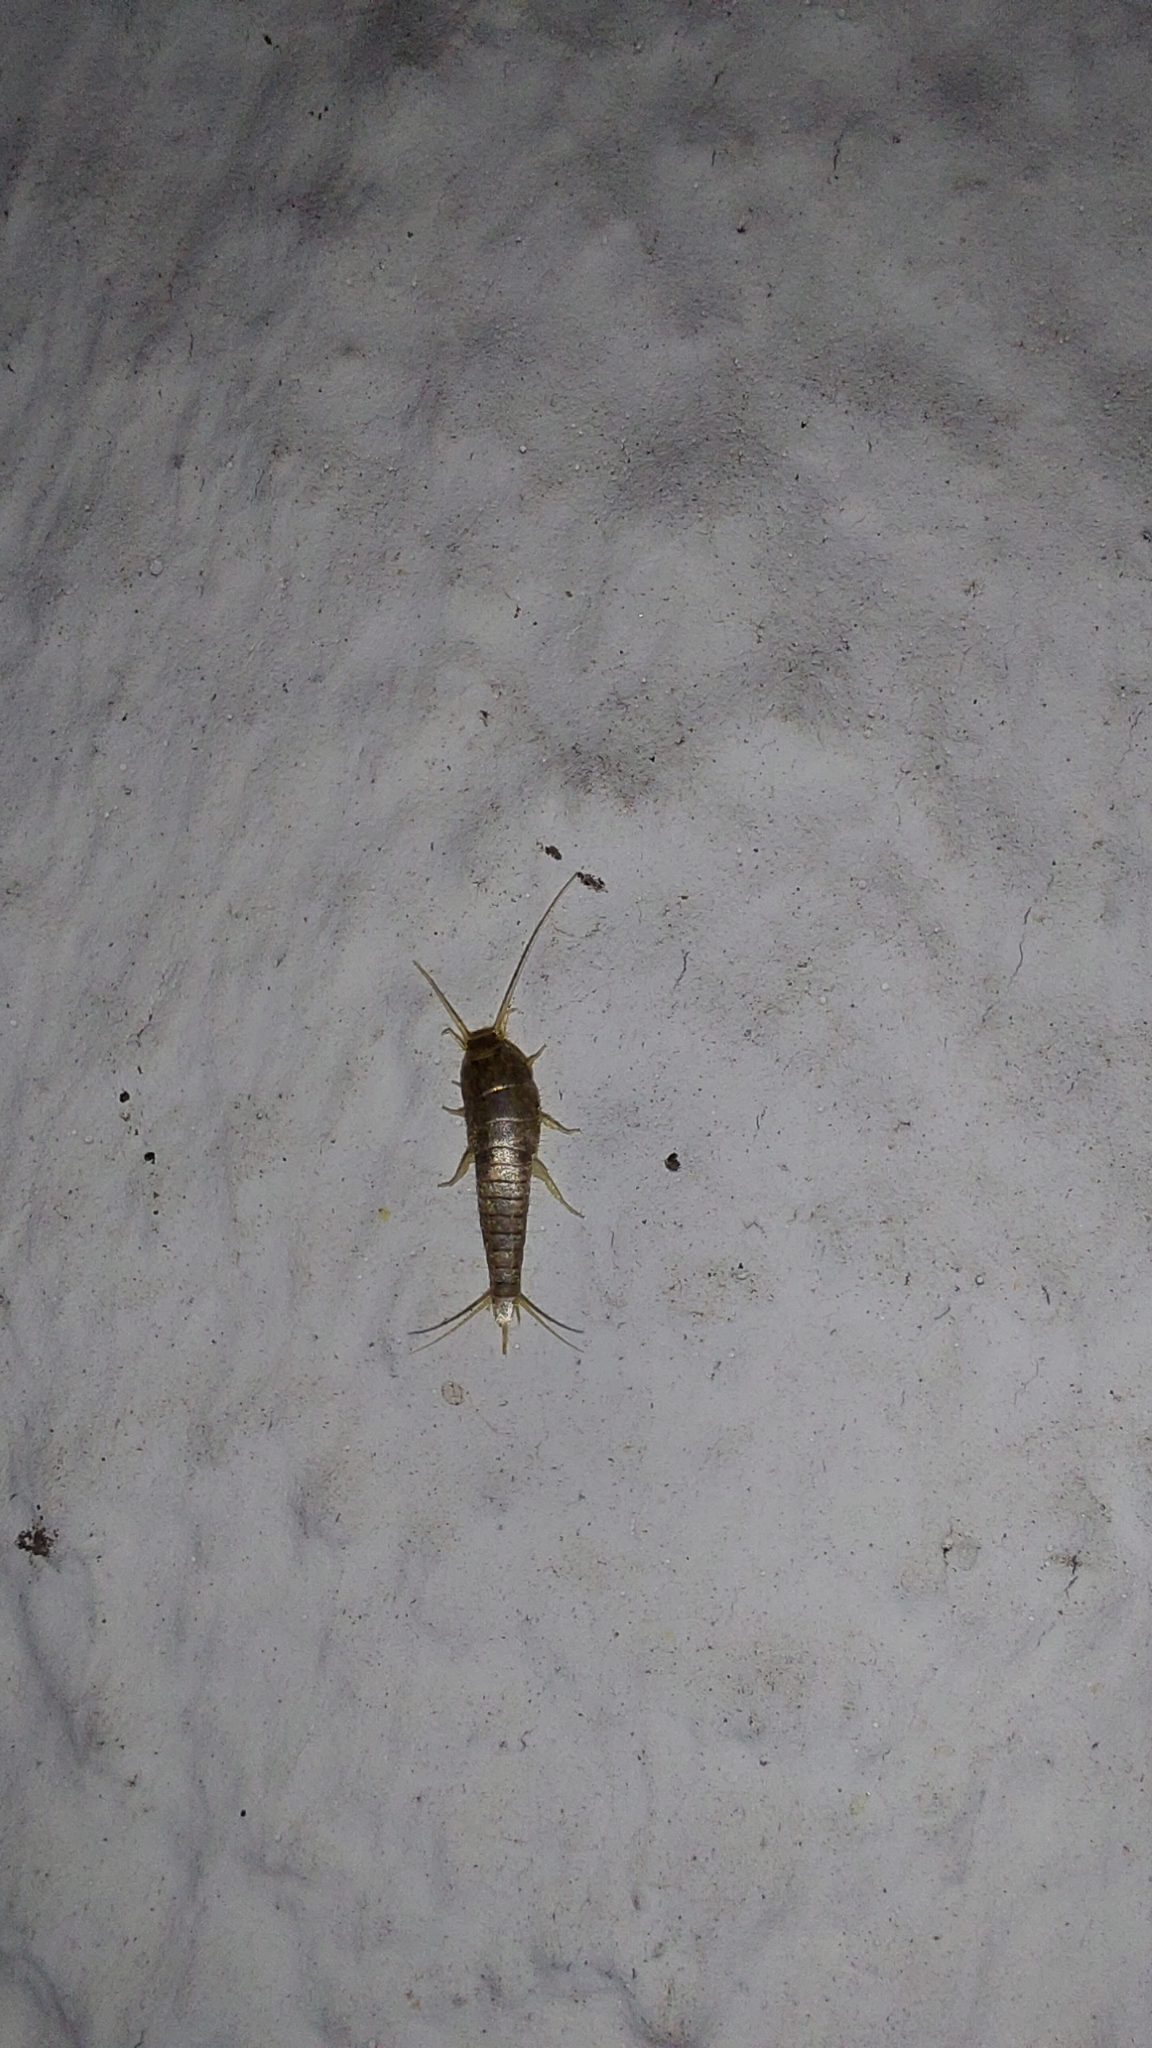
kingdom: Animalia
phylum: Arthropoda
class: Insecta
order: Zygentoma
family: Lepismatidae
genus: Lepisma
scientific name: Lepisma saccharinum
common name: Silverfish
